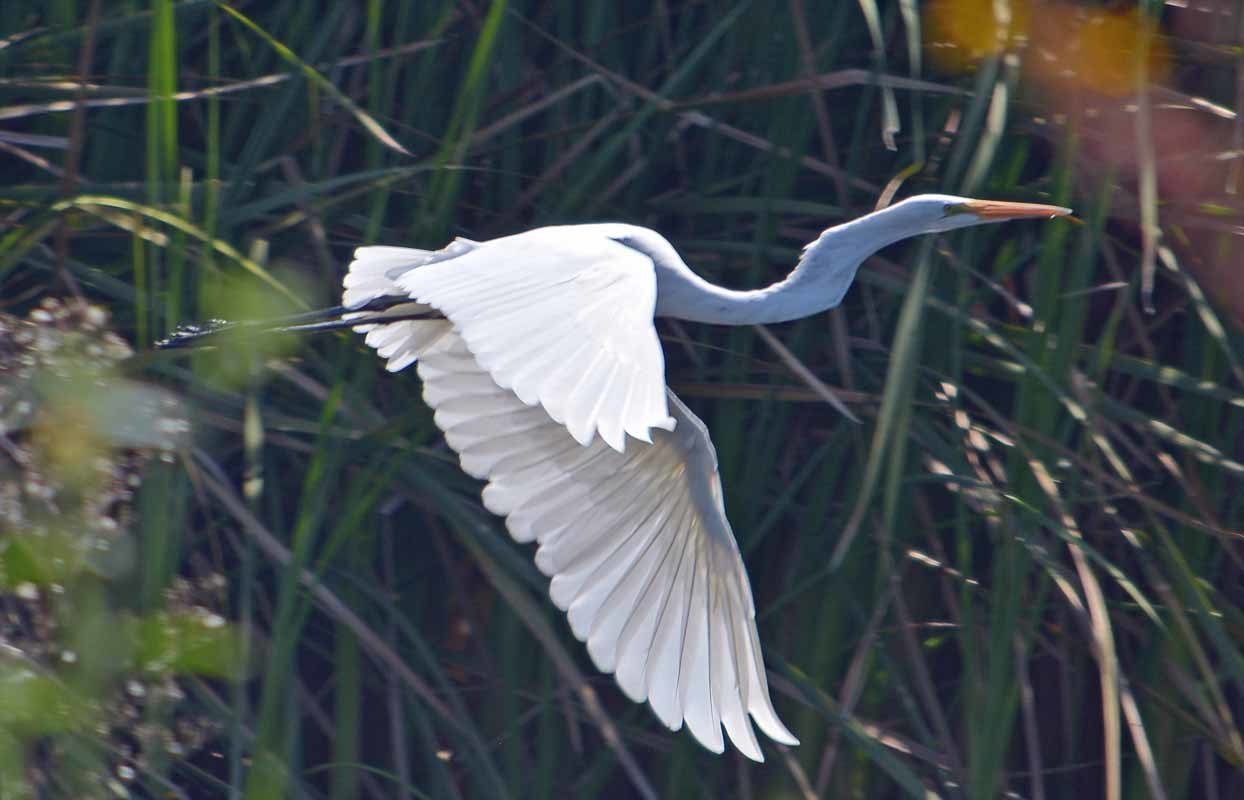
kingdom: Animalia
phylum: Chordata
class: Aves
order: Pelecaniformes
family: Ardeidae
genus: Ardea
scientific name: Ardea alba
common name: Great egret
